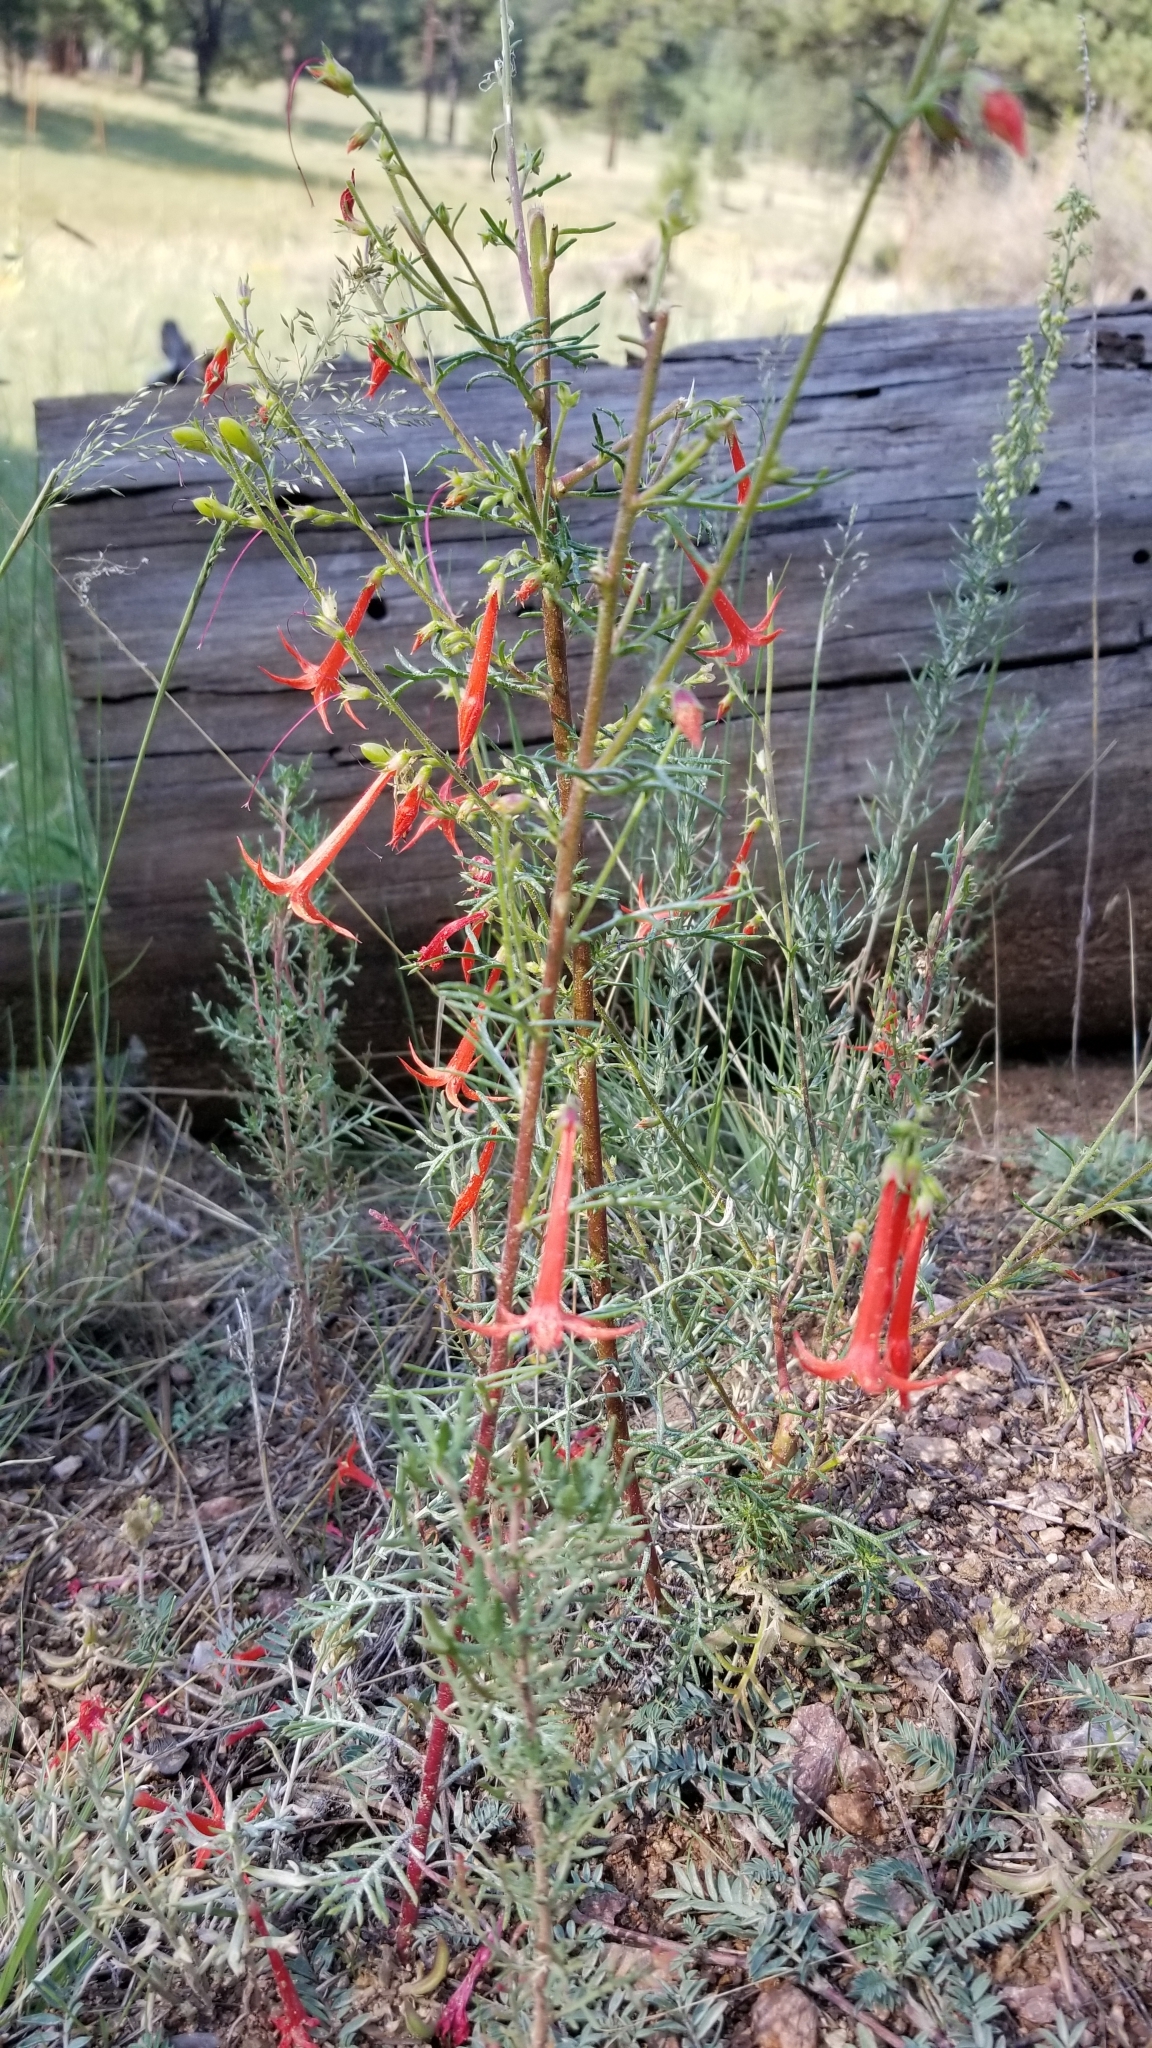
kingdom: Plantae
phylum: Tracheophyta
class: Magnoliopsida
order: Ericales
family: Polemoniaceae
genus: Ipomopsis
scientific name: Ipomopsis aggregata
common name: Scarlet gilia
